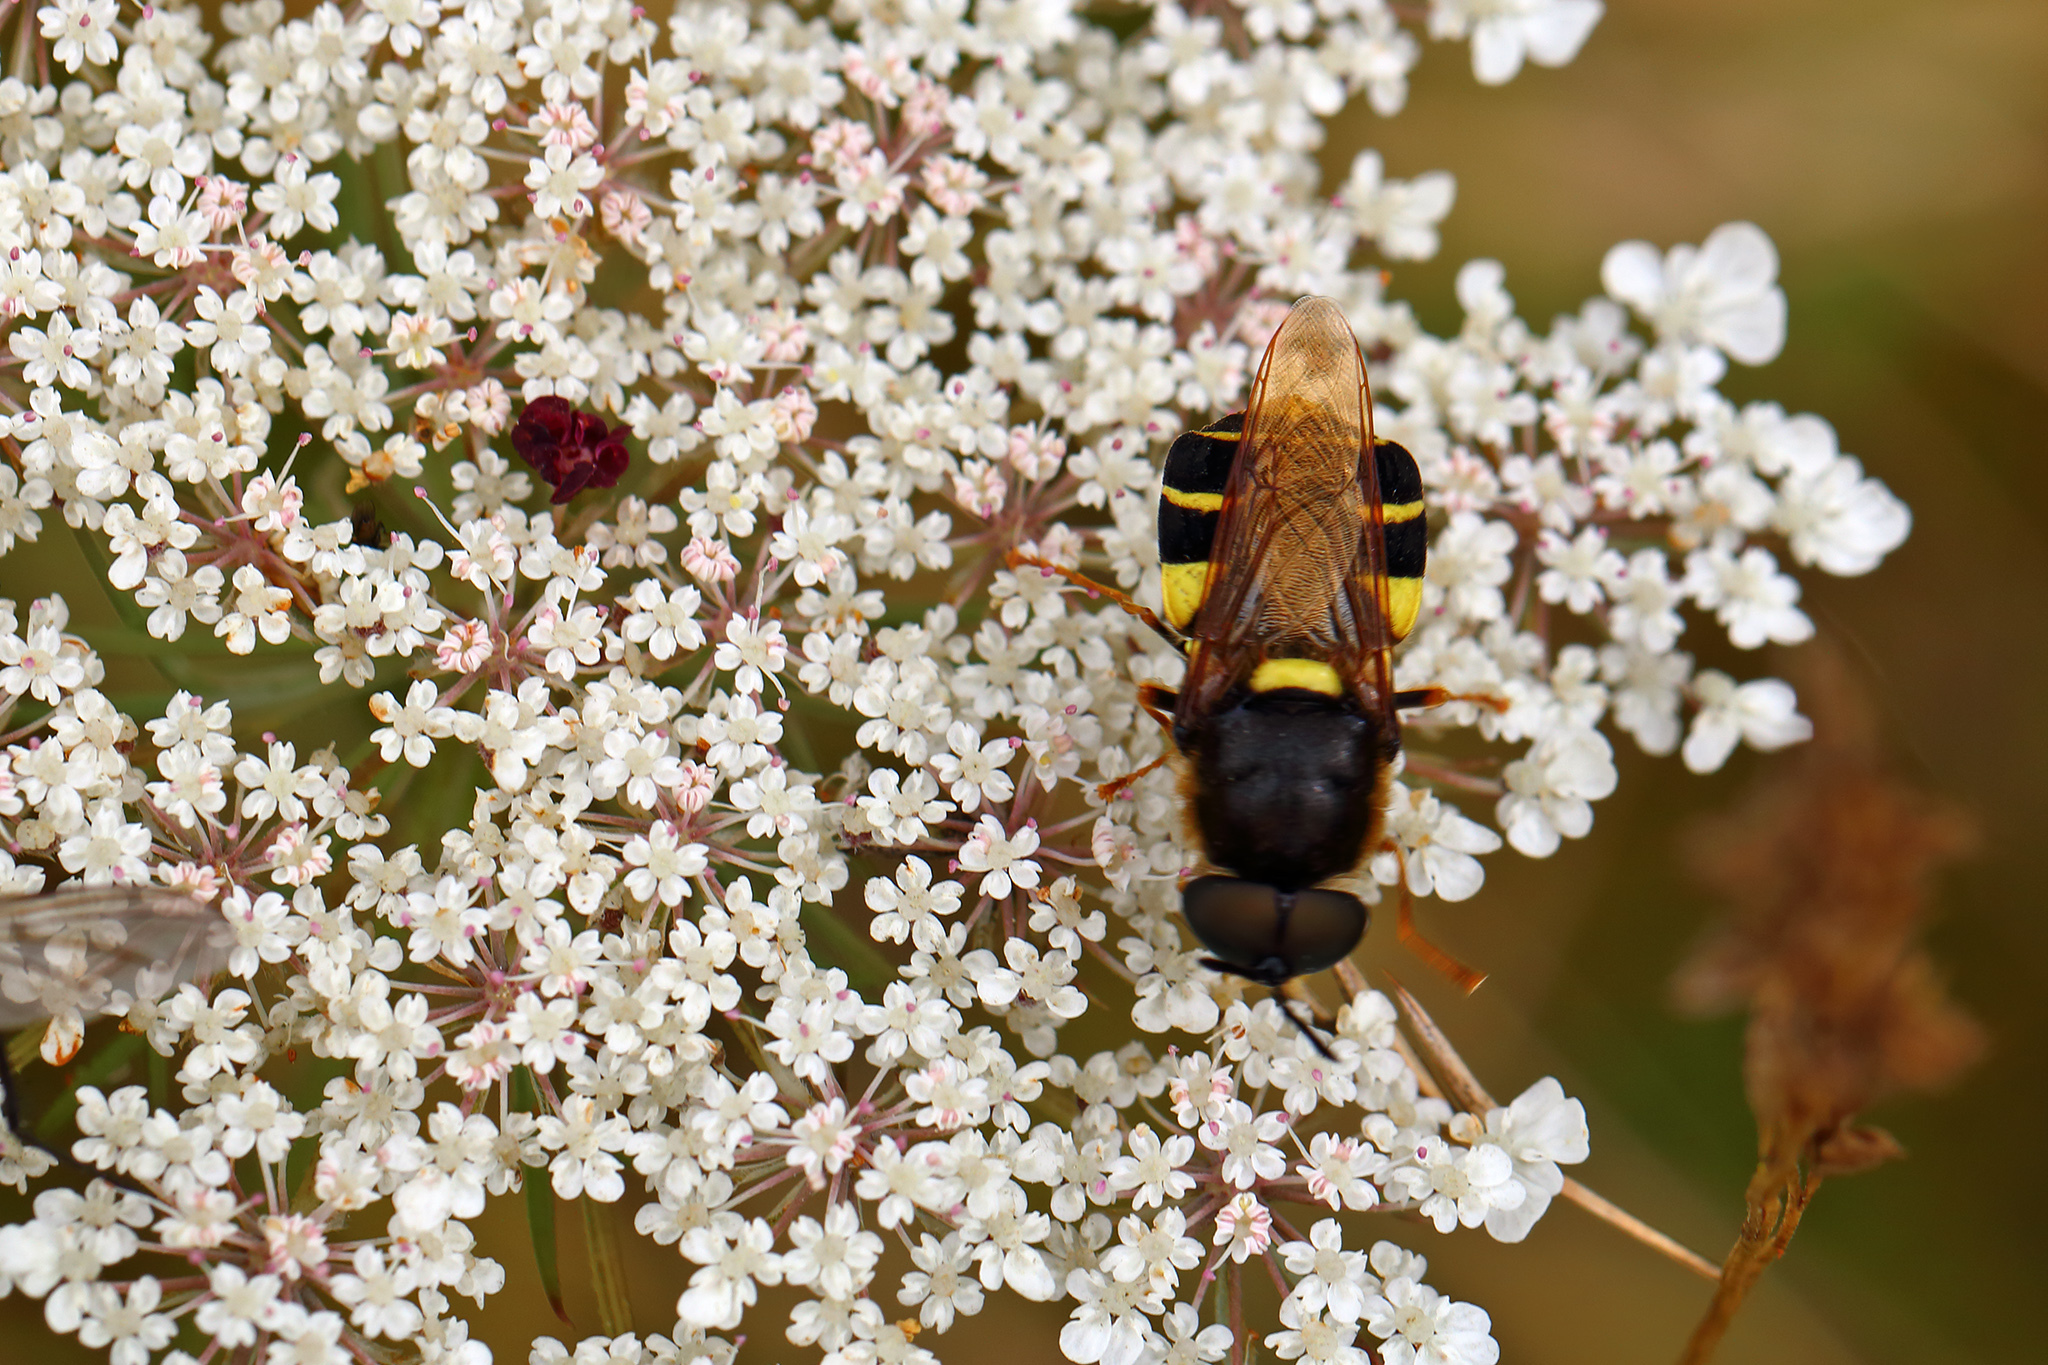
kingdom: Animalia
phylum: Arthropoda
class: Insecta
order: Diptera
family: Stratiomyidae
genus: Stratiomys
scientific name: Stratiomys potamida
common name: Banded general
